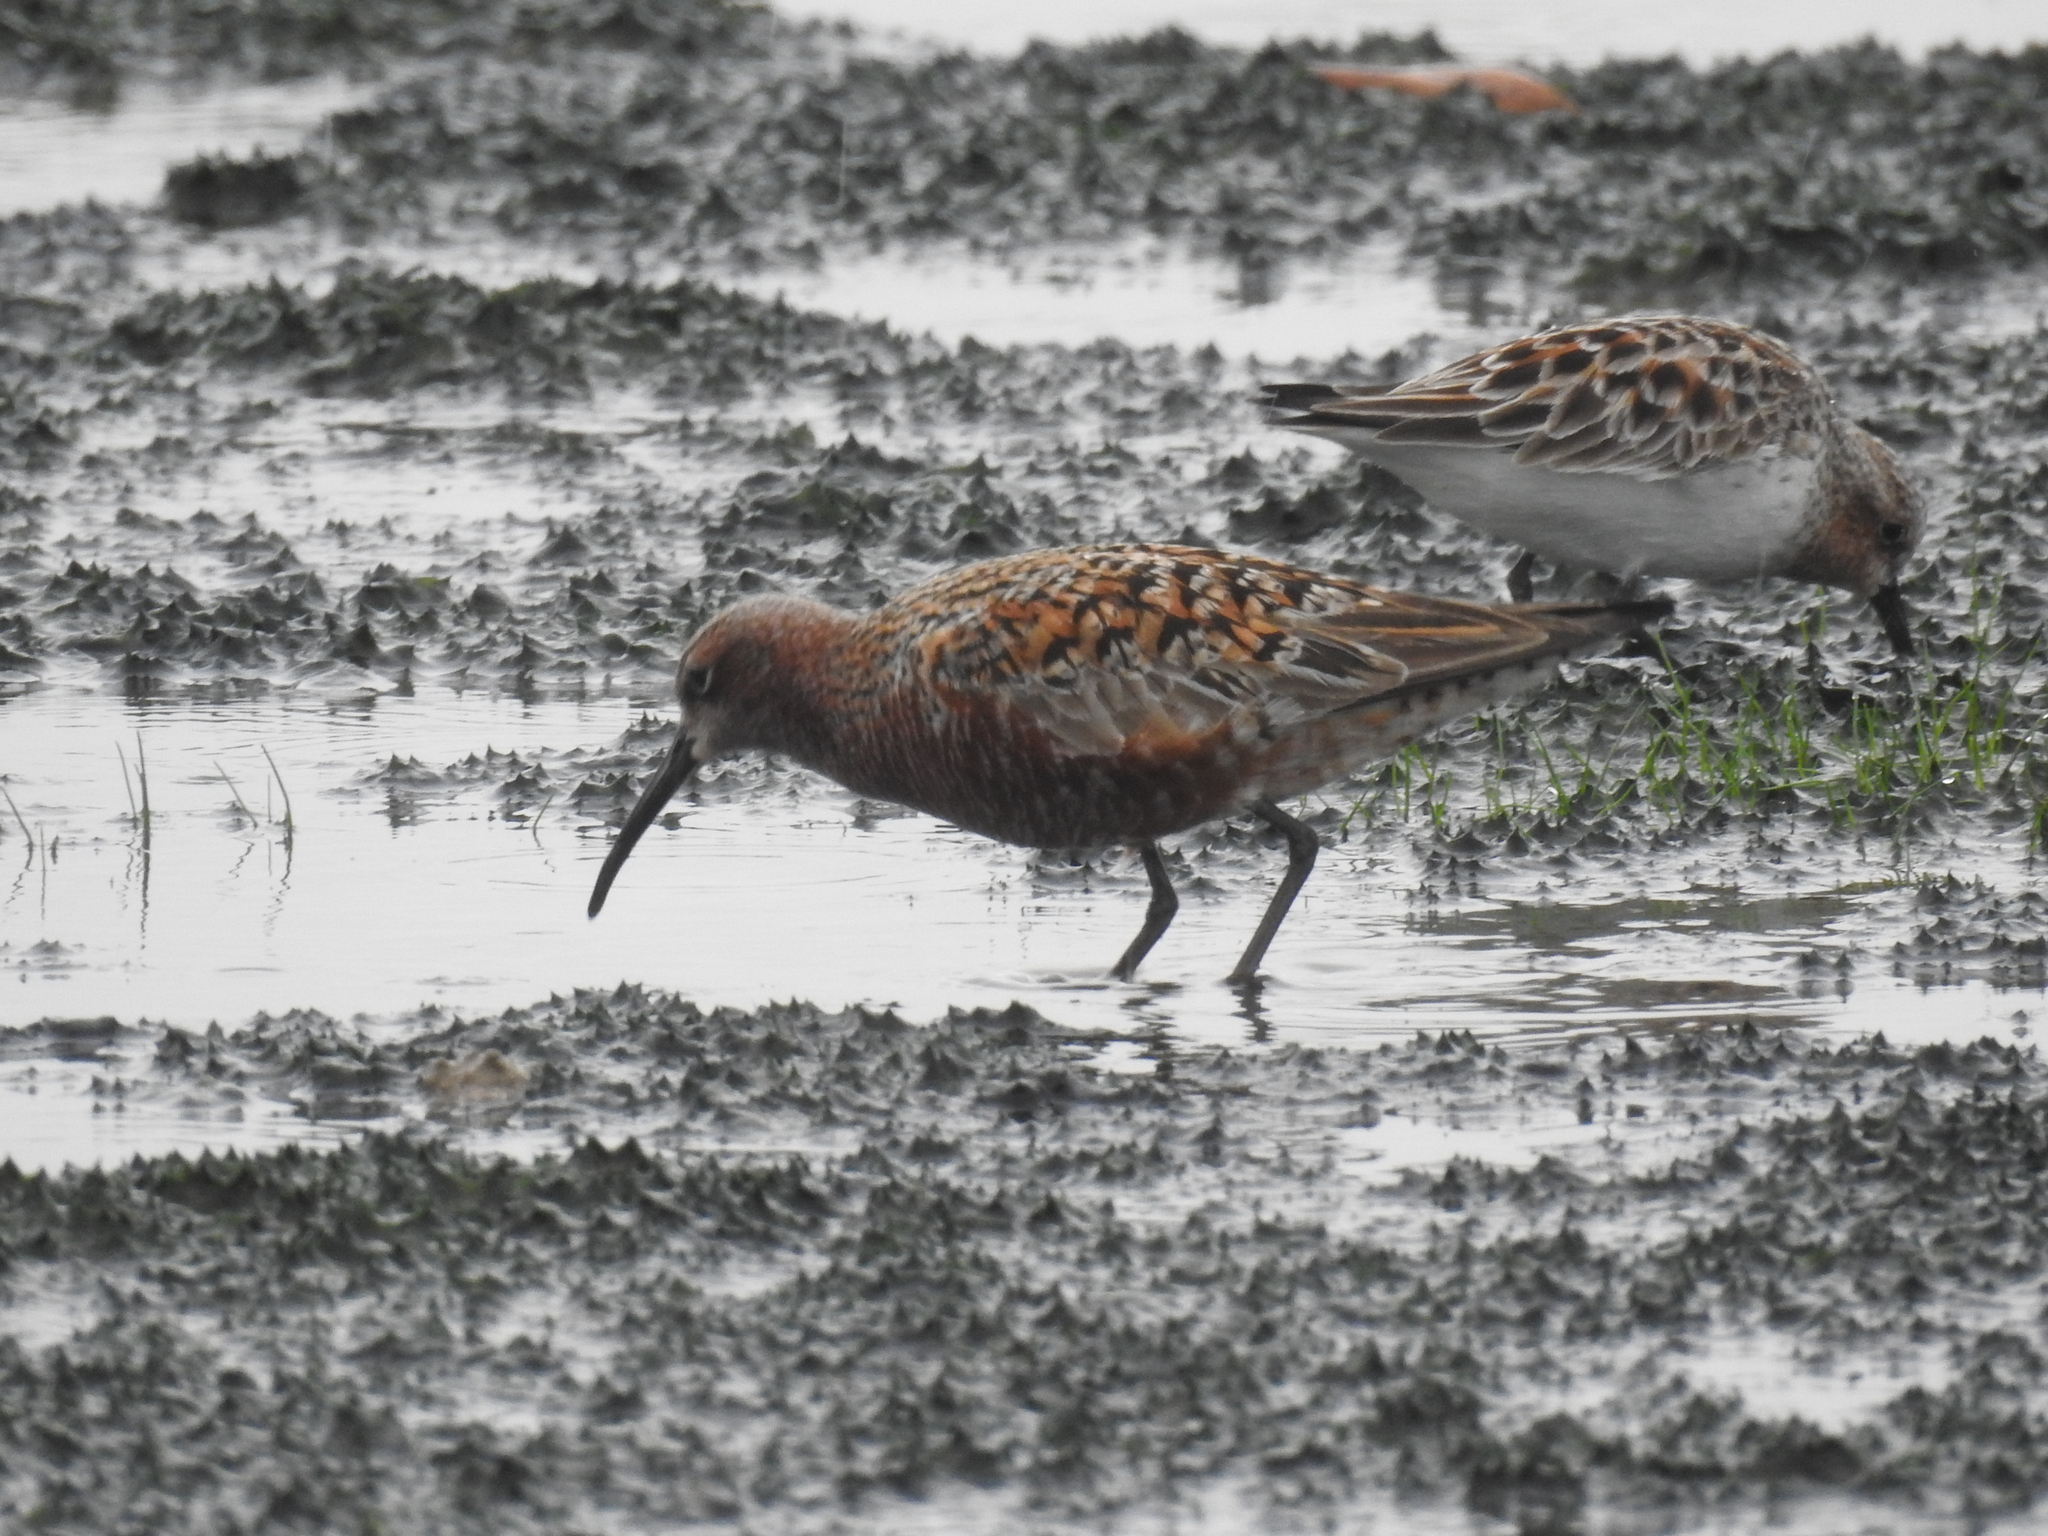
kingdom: Animalia
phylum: Chordata
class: Aves
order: Charadriiformes
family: Scolopacidae
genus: Calidris
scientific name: Calidris ferruginea
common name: Curlew sandpiper
